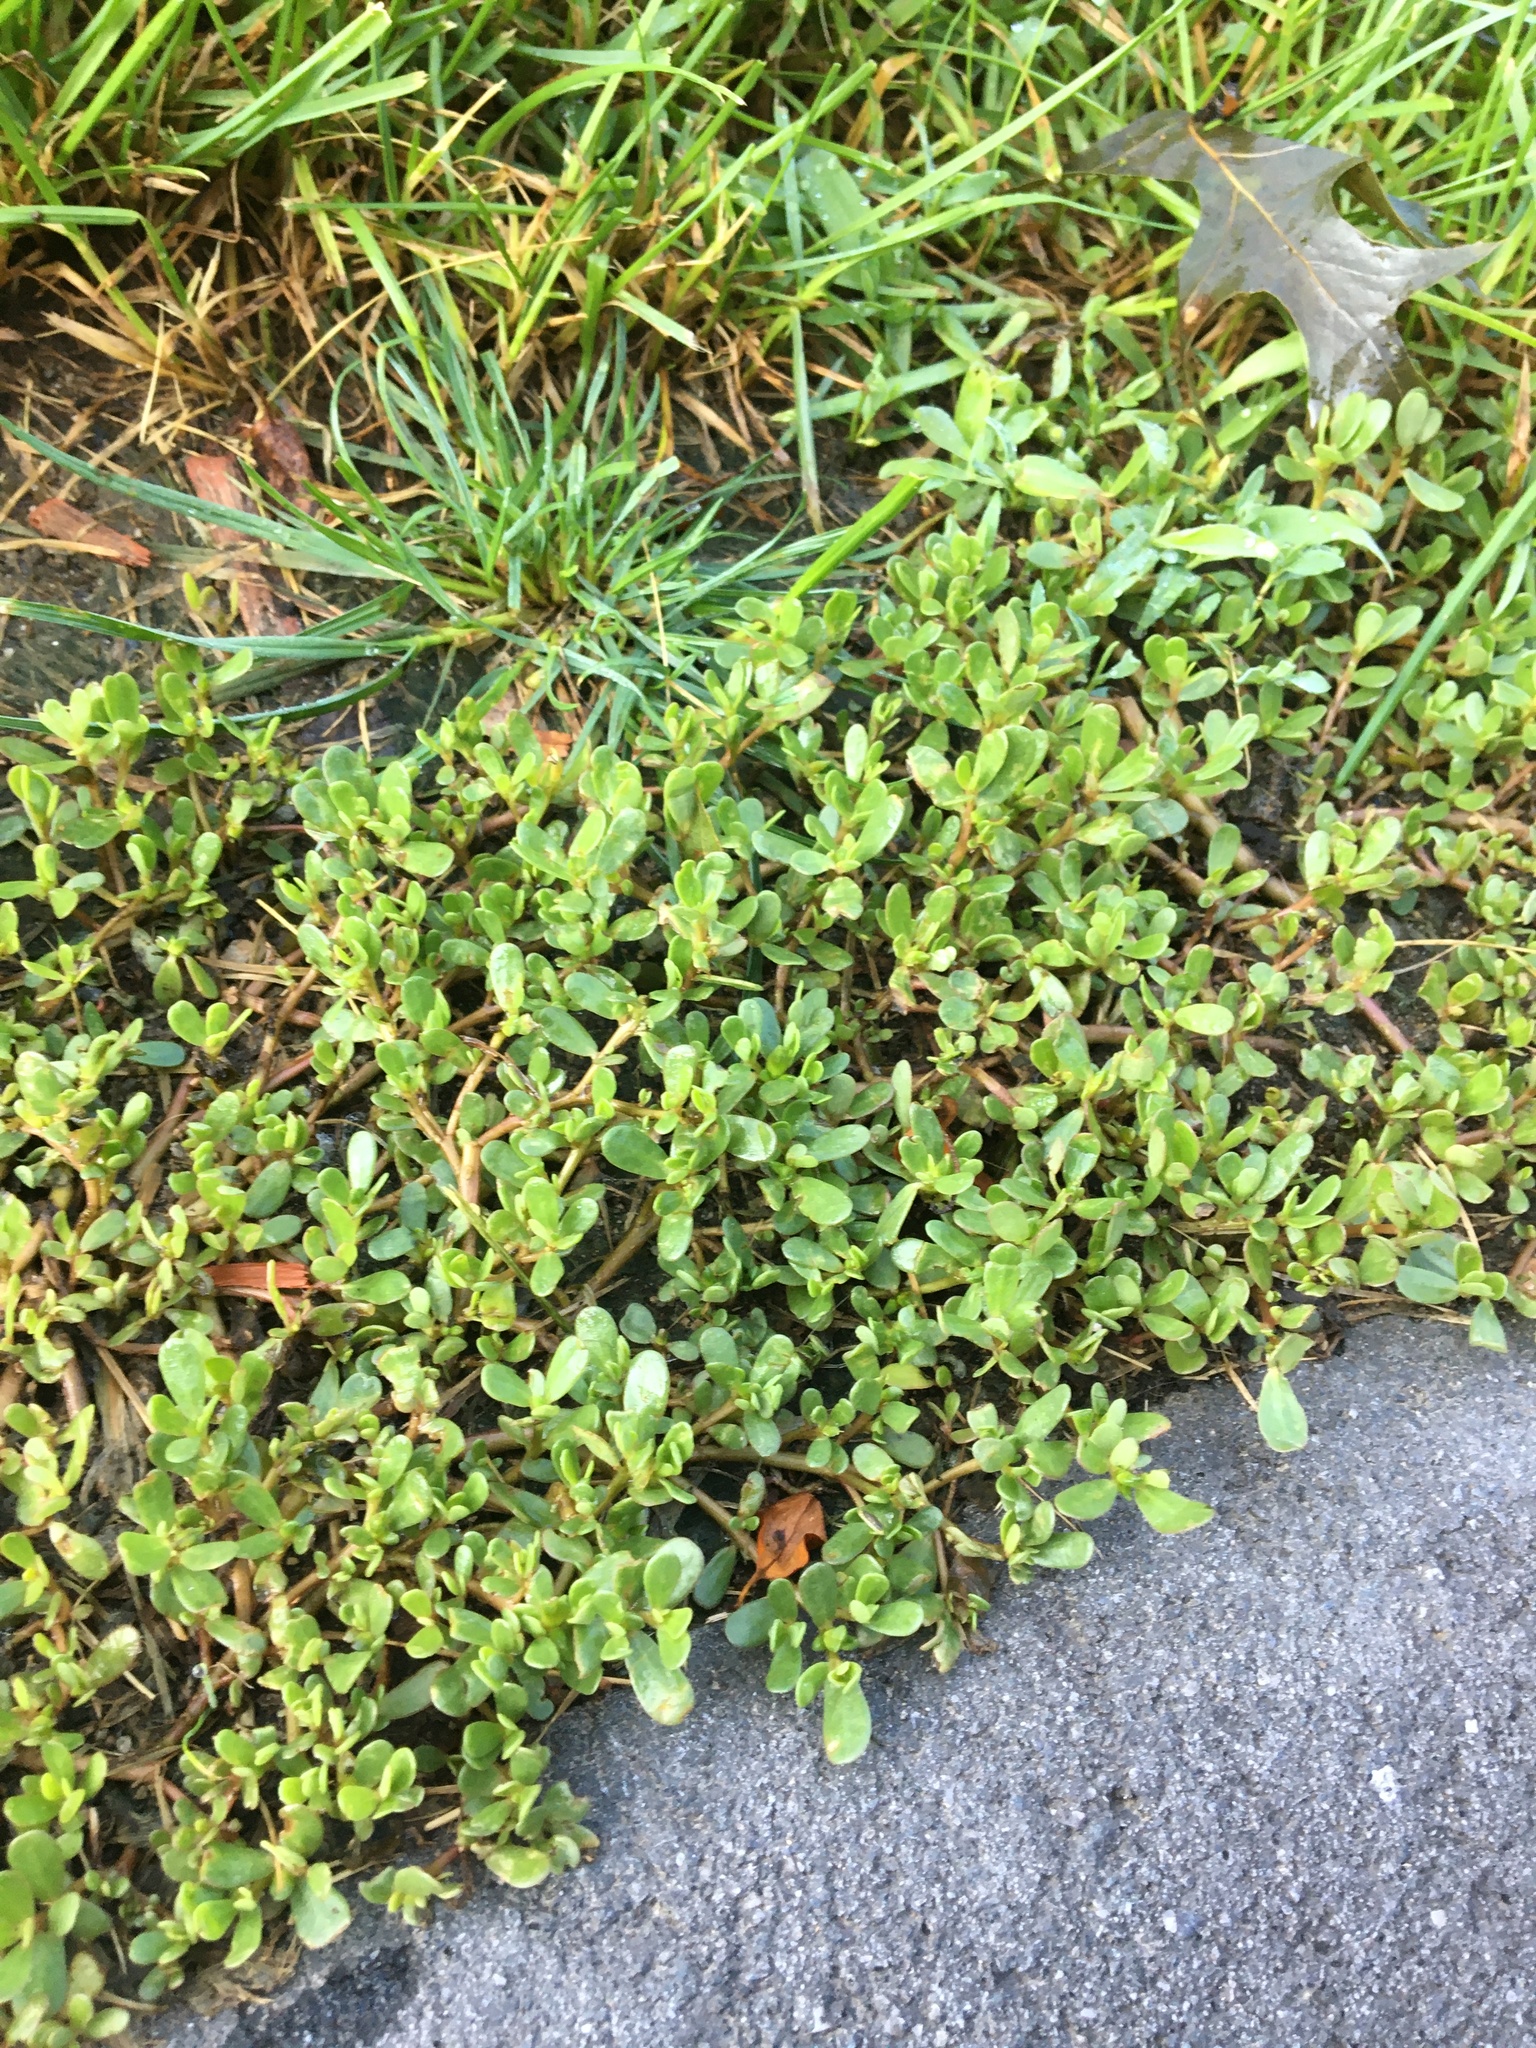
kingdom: Plantae
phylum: Tracheophyta
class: Magnoliopsida
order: Caryophyllales
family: Portulacaceae
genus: Portulaca
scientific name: Portulaca oleracea
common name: Common purslane
